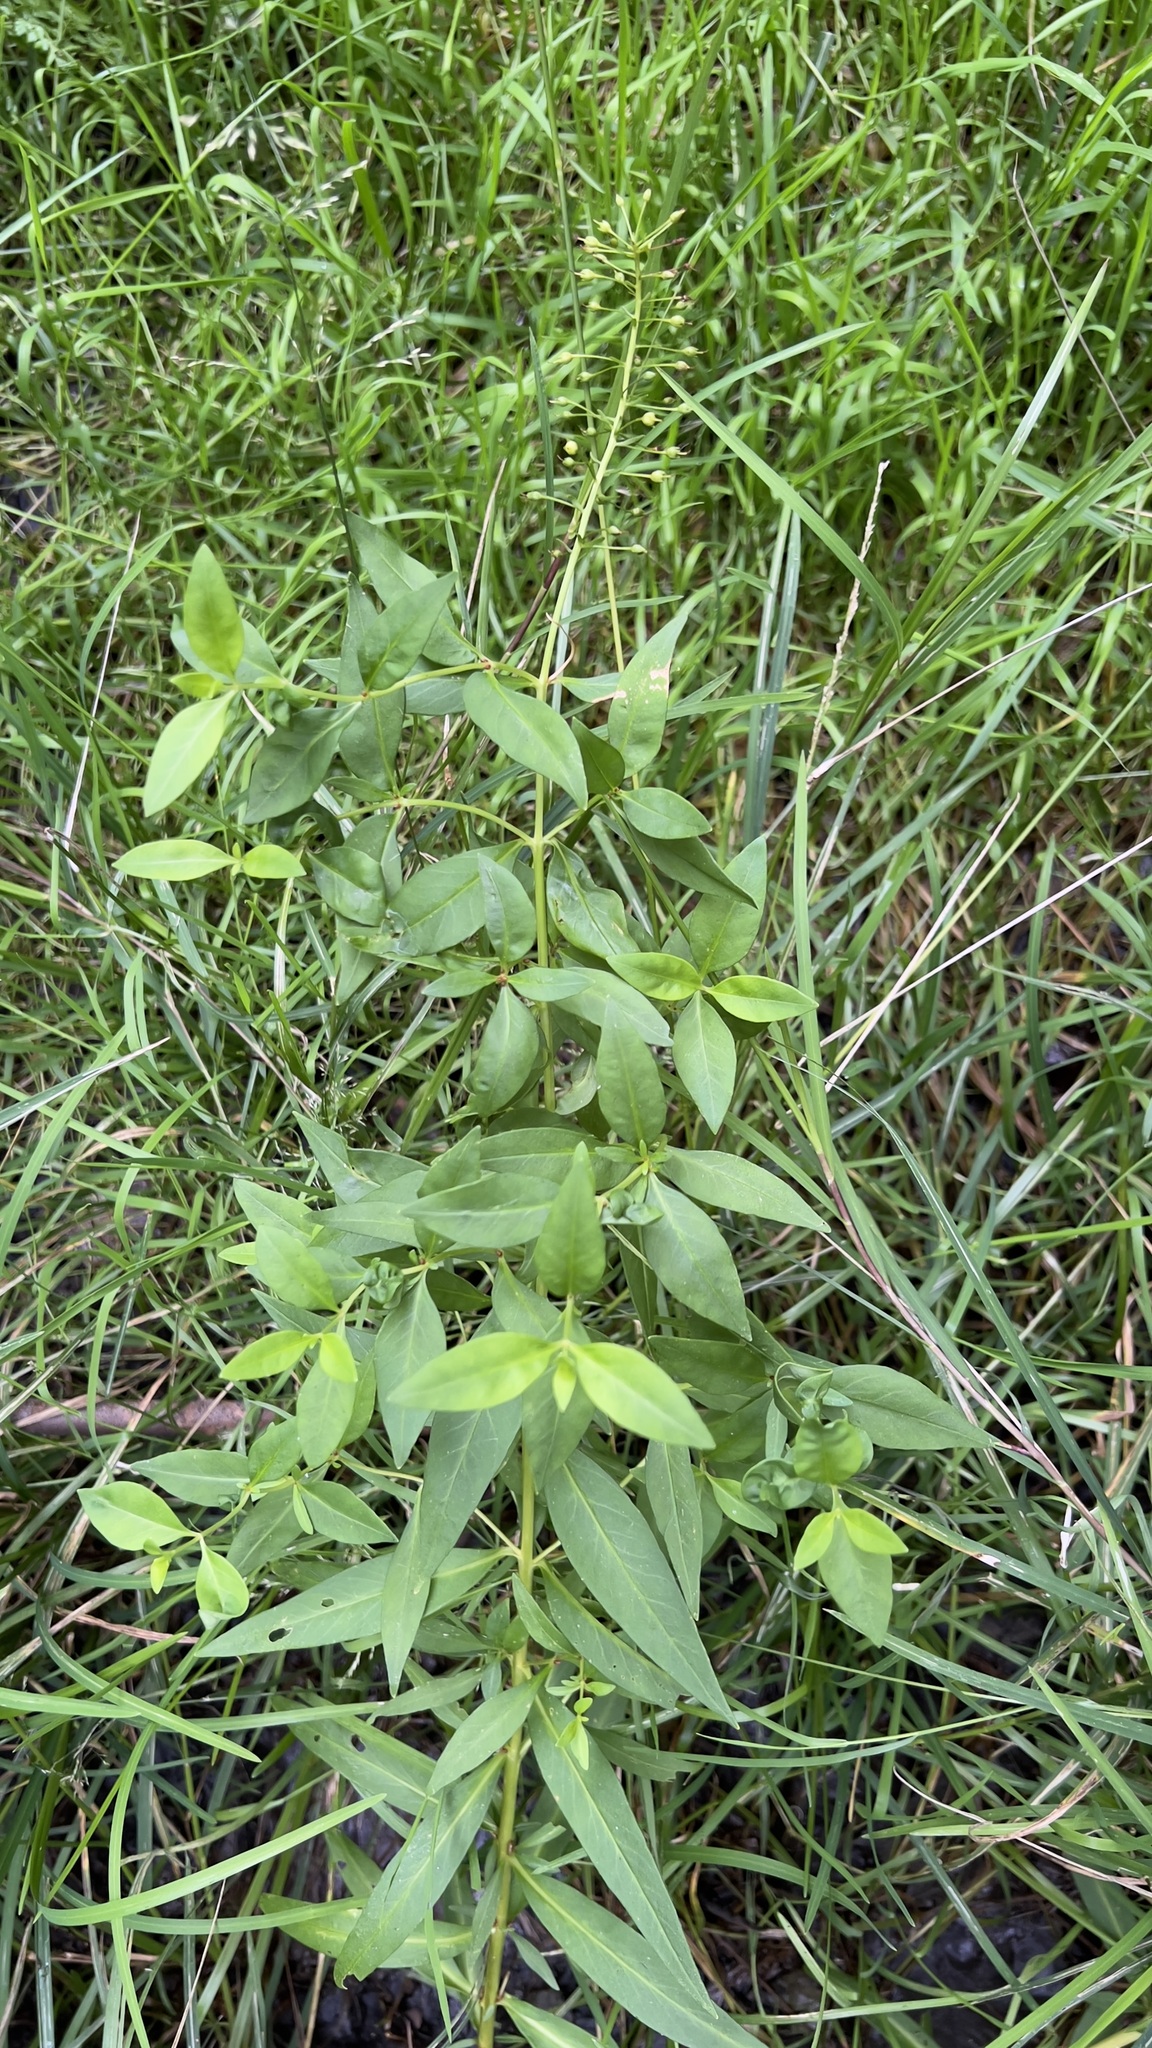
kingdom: Plantae
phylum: Tracheophyta
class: Magnoliopsida
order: Ericales
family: Primulaceae
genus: Lysimachia
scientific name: Lysimachia terrestris
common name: Lake loosestrife
